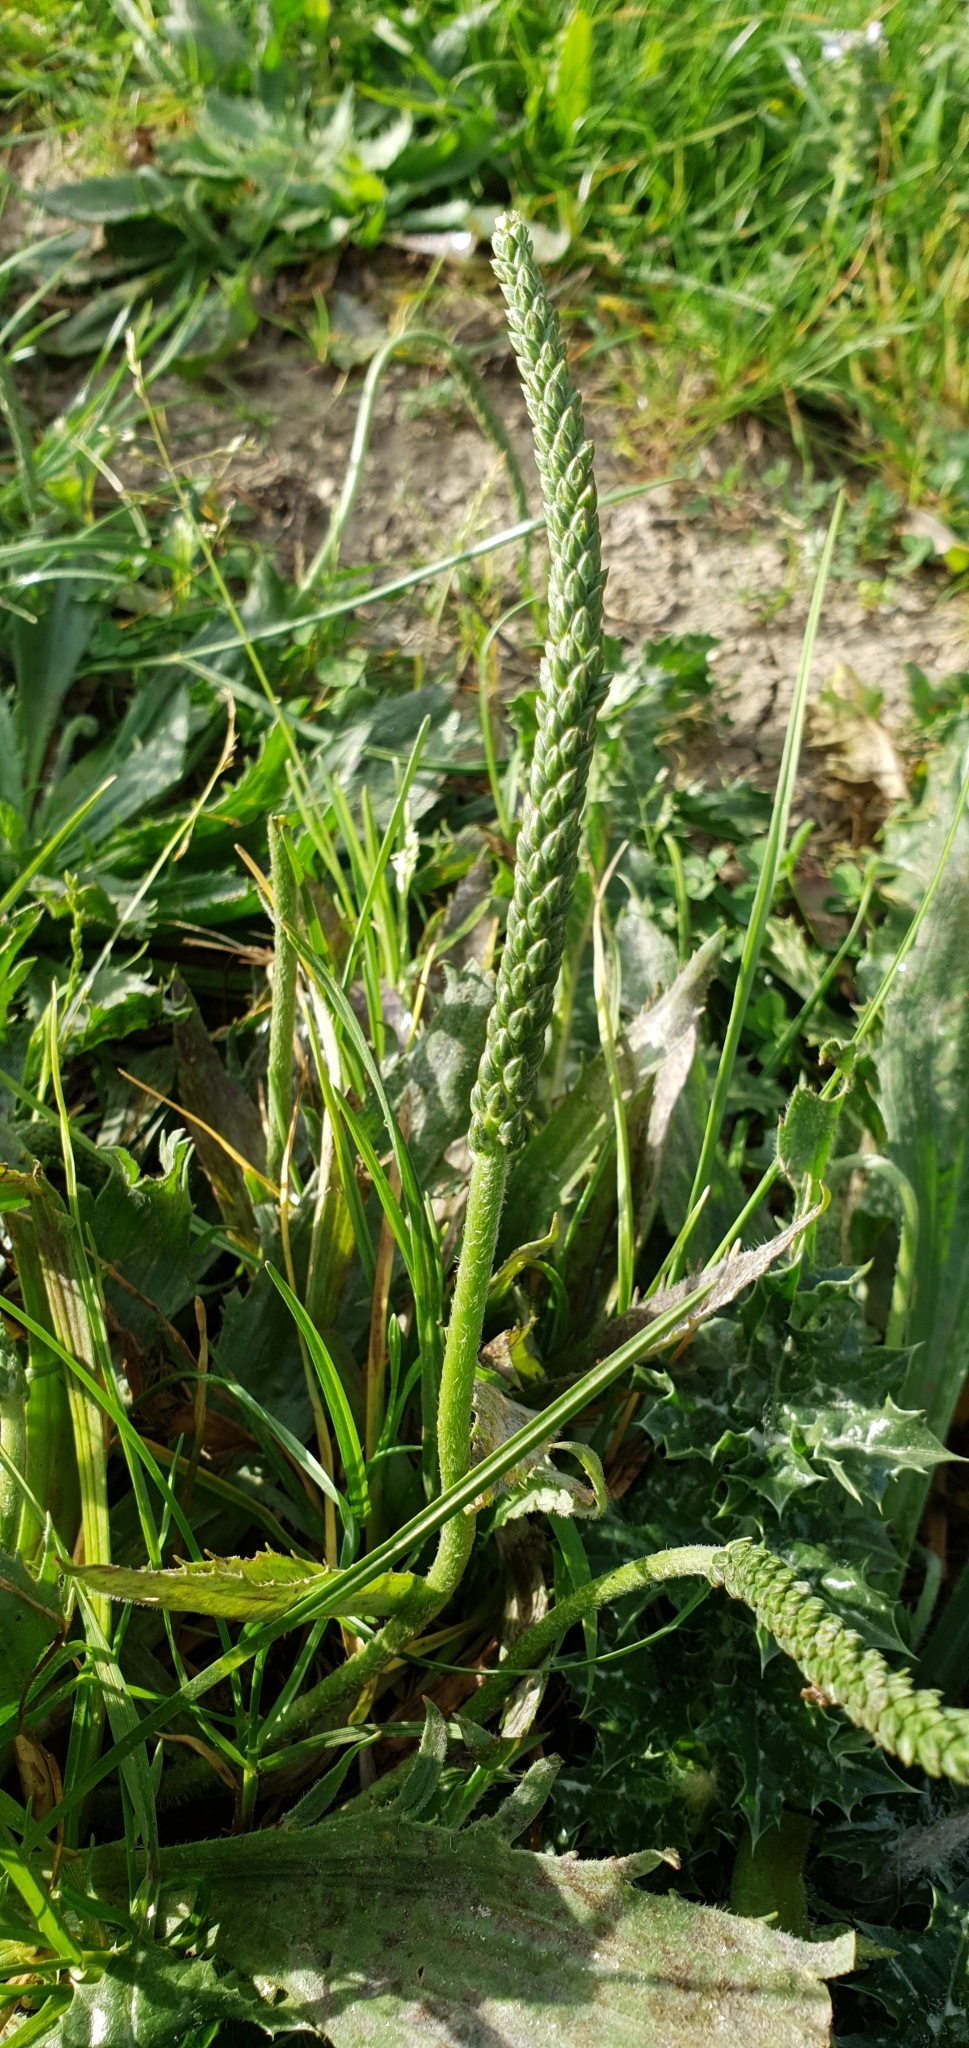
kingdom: Plantae
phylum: Tracheophyta
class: Magnoliopsida
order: Lamiales
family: Plantaginaceae
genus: Plantago
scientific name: Plantago serraria
